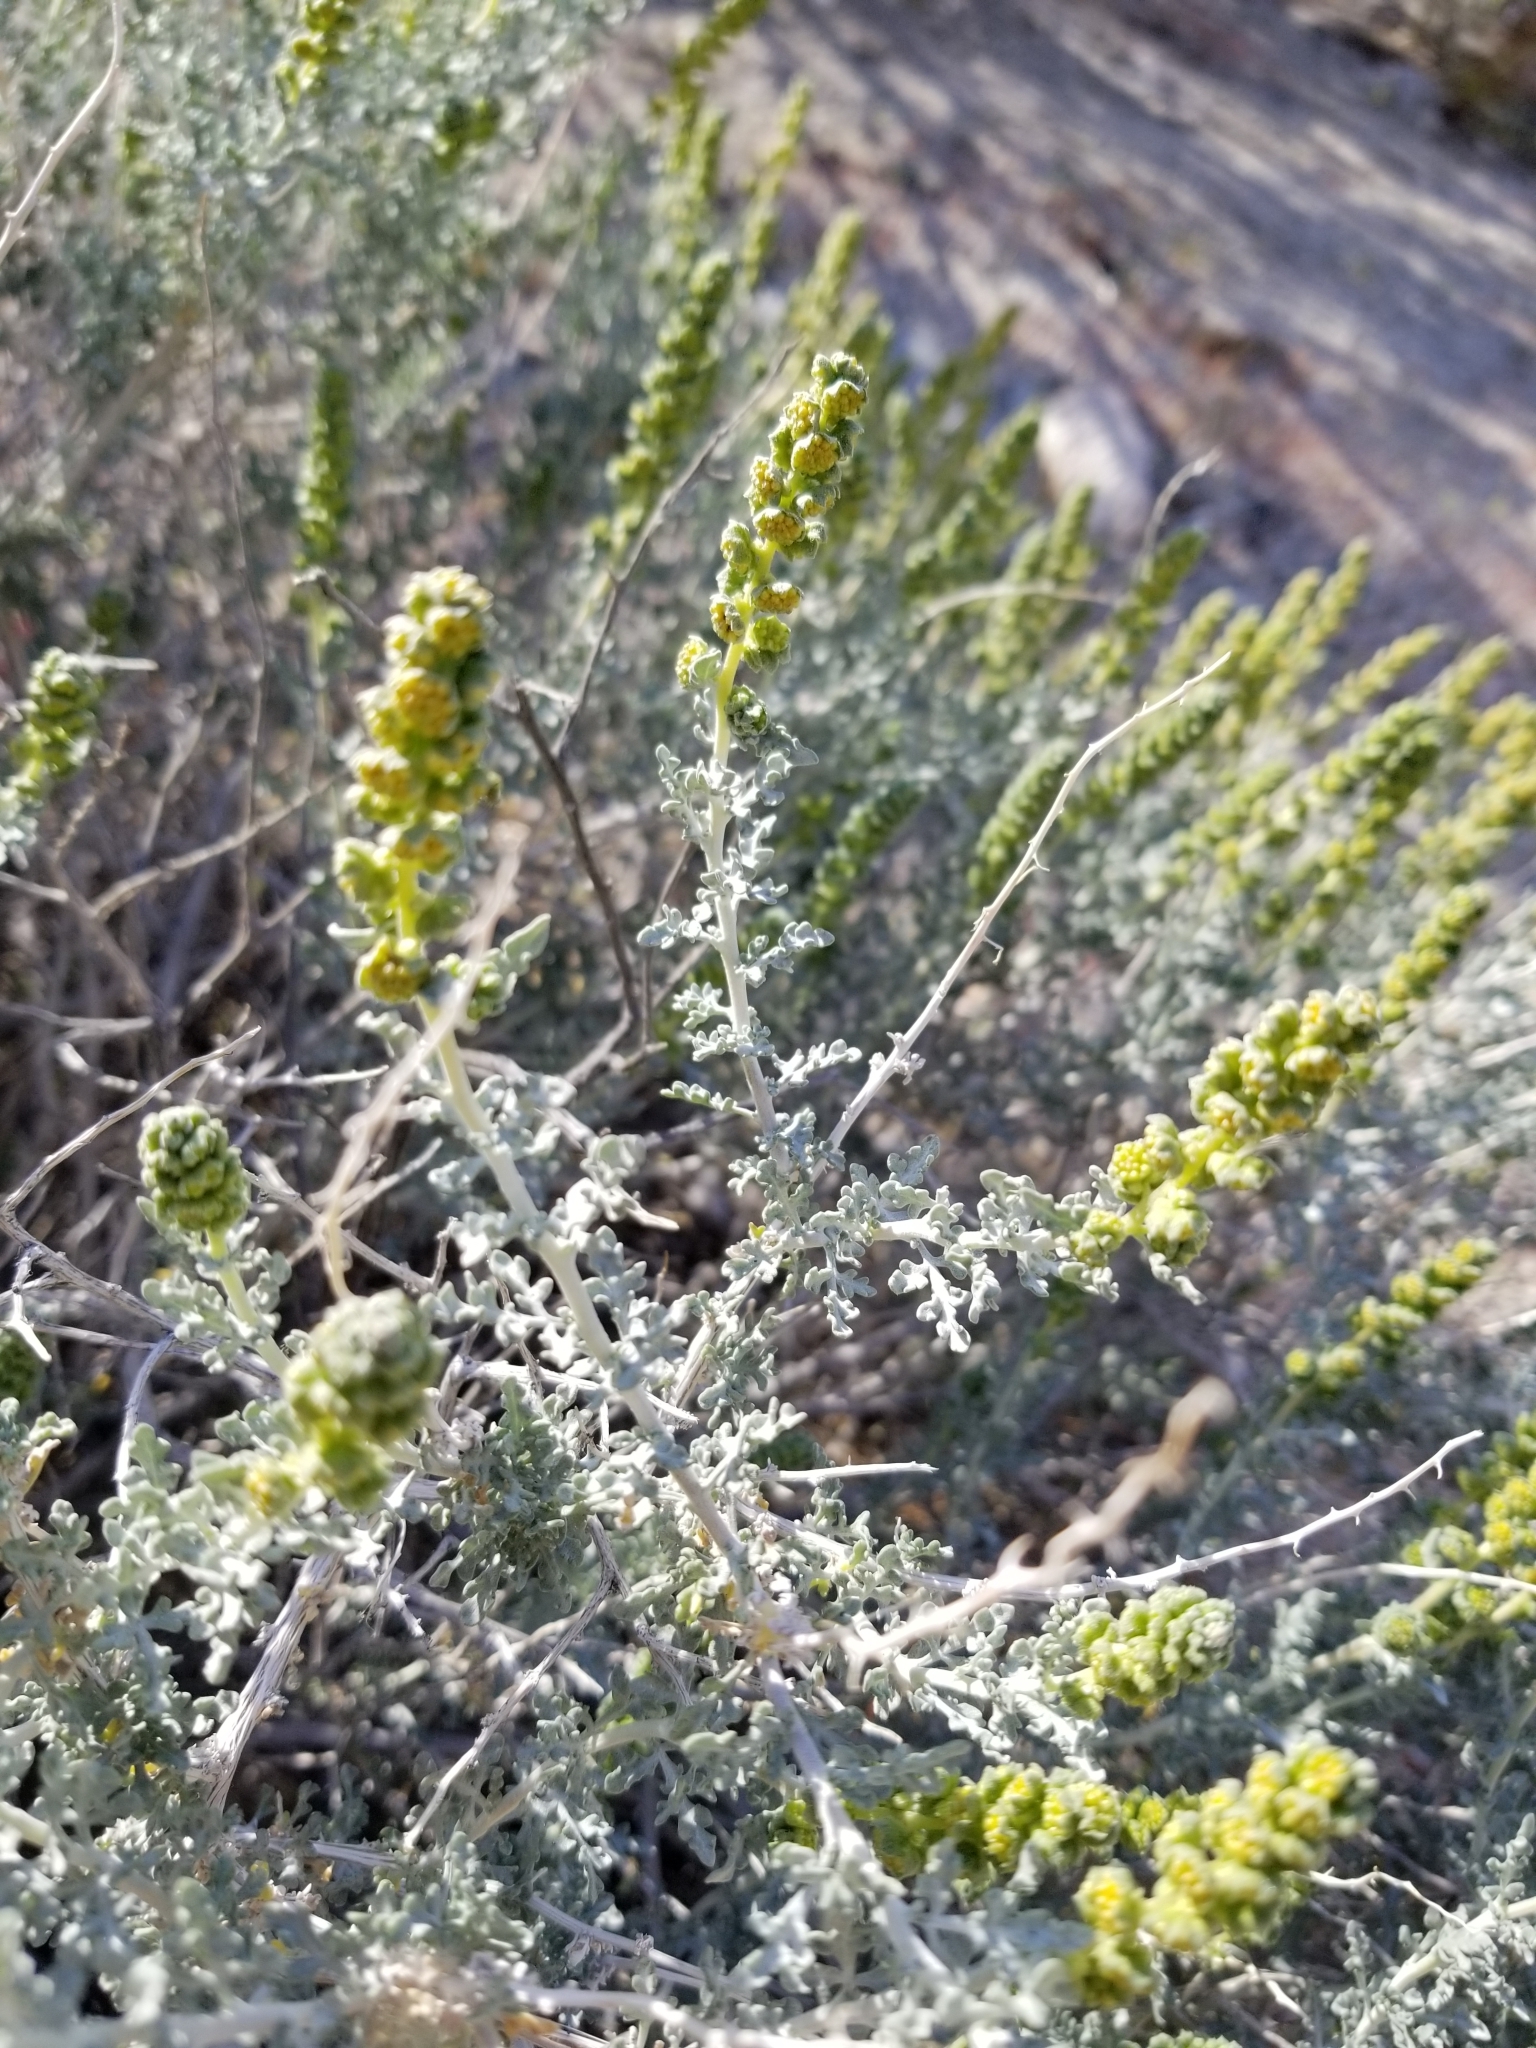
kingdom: Plantae
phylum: Tracheophyta
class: Magnoliopsida
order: Asterales
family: Asteraceae
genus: Ambrosia
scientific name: Ambrosia dumosa
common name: Bur-sage
